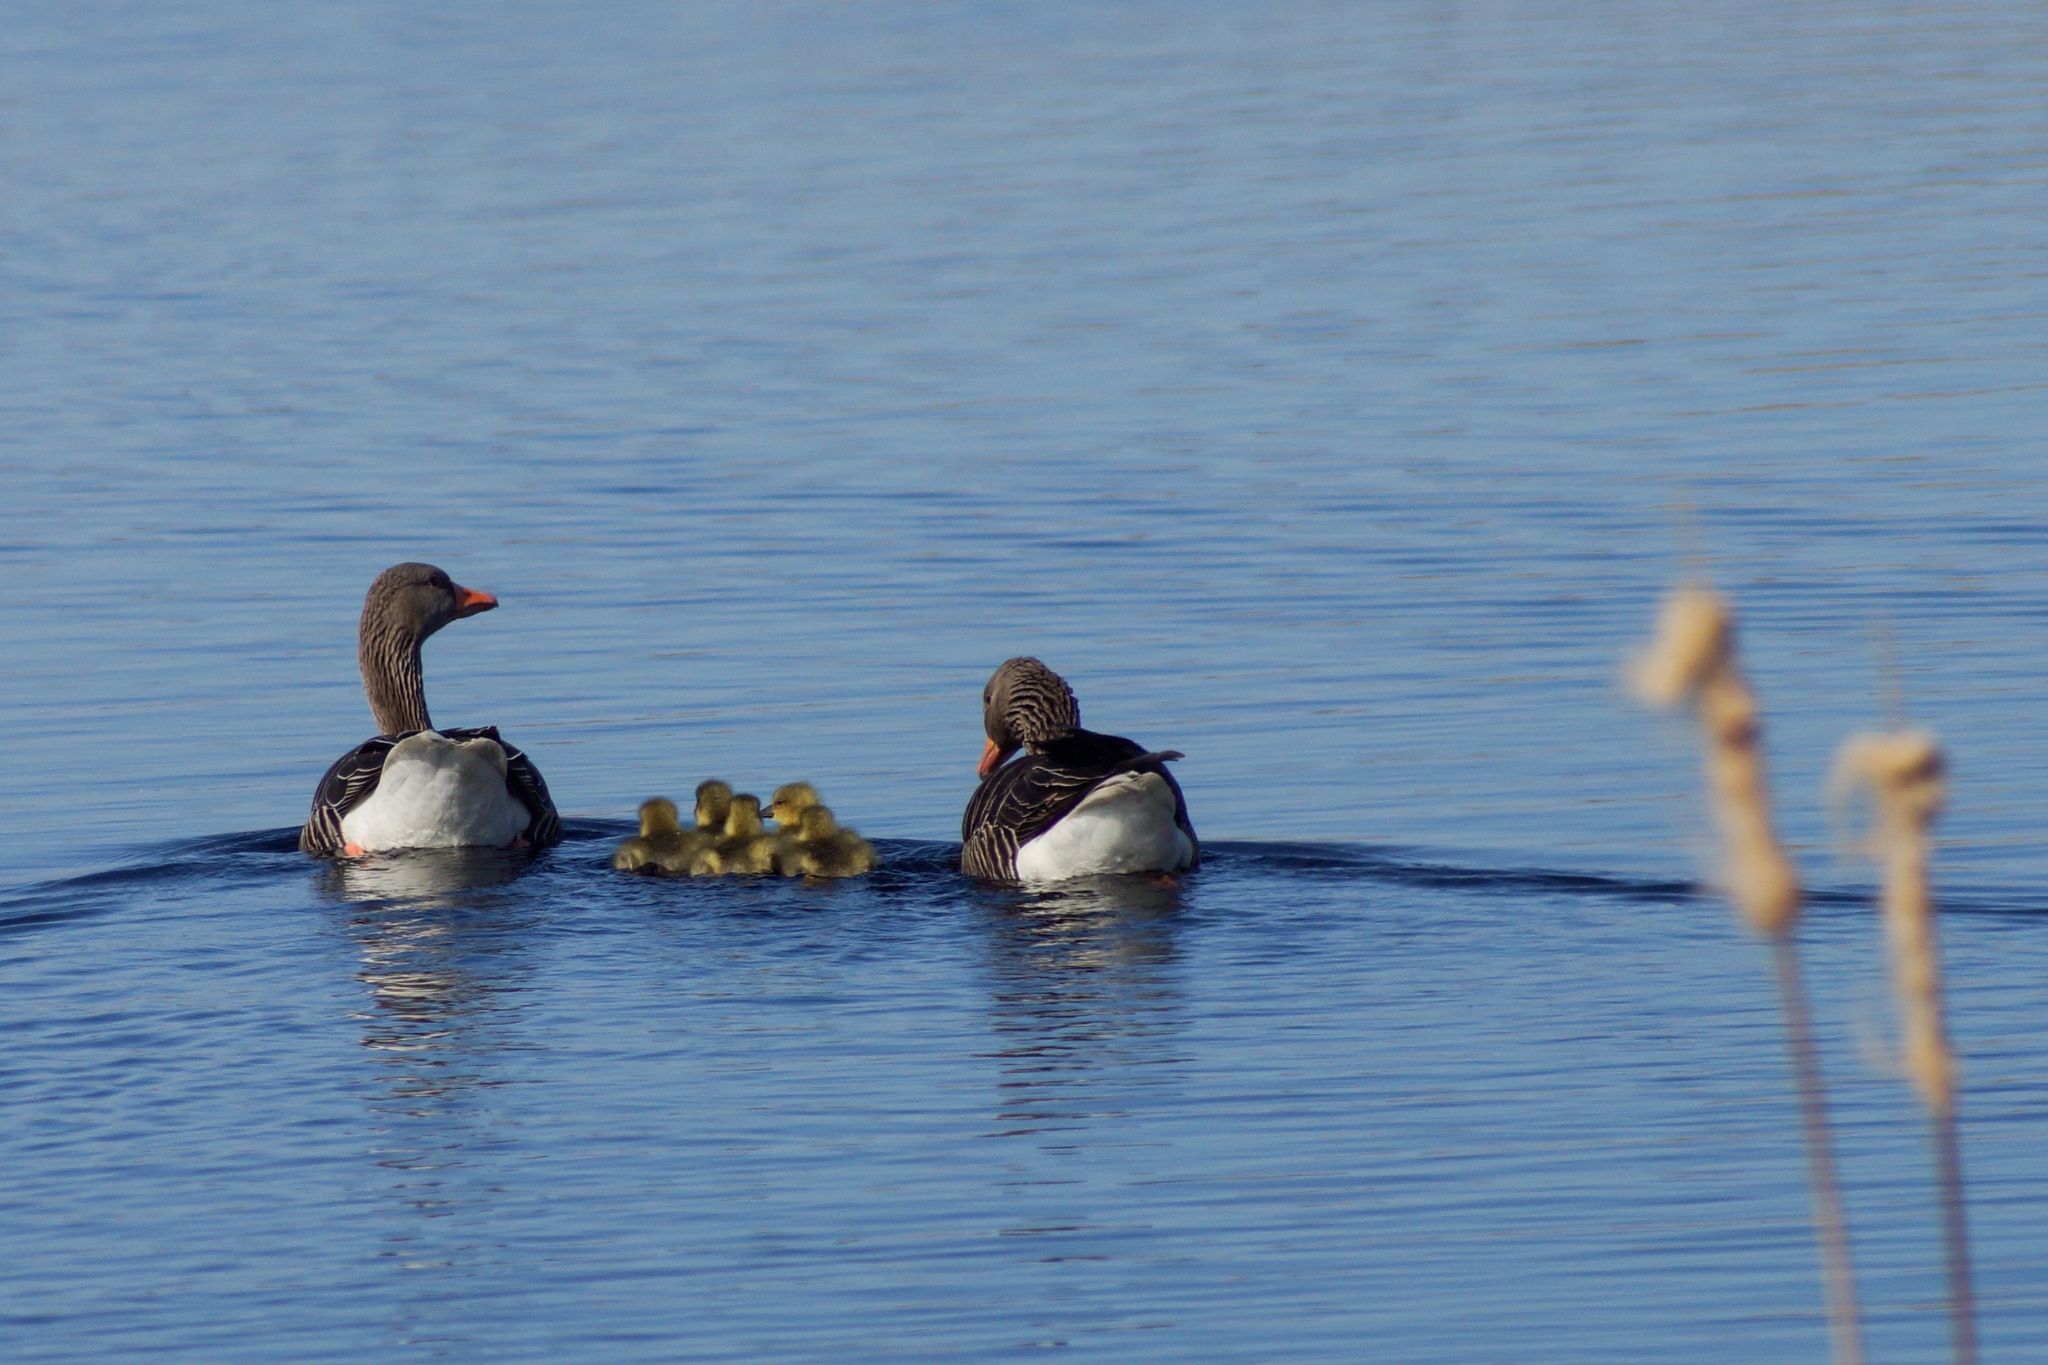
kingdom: Animalia
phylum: Chordata
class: Aves
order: Anseriformes
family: Anatidae
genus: Anser
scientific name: Anser anser
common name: Greylag goose
